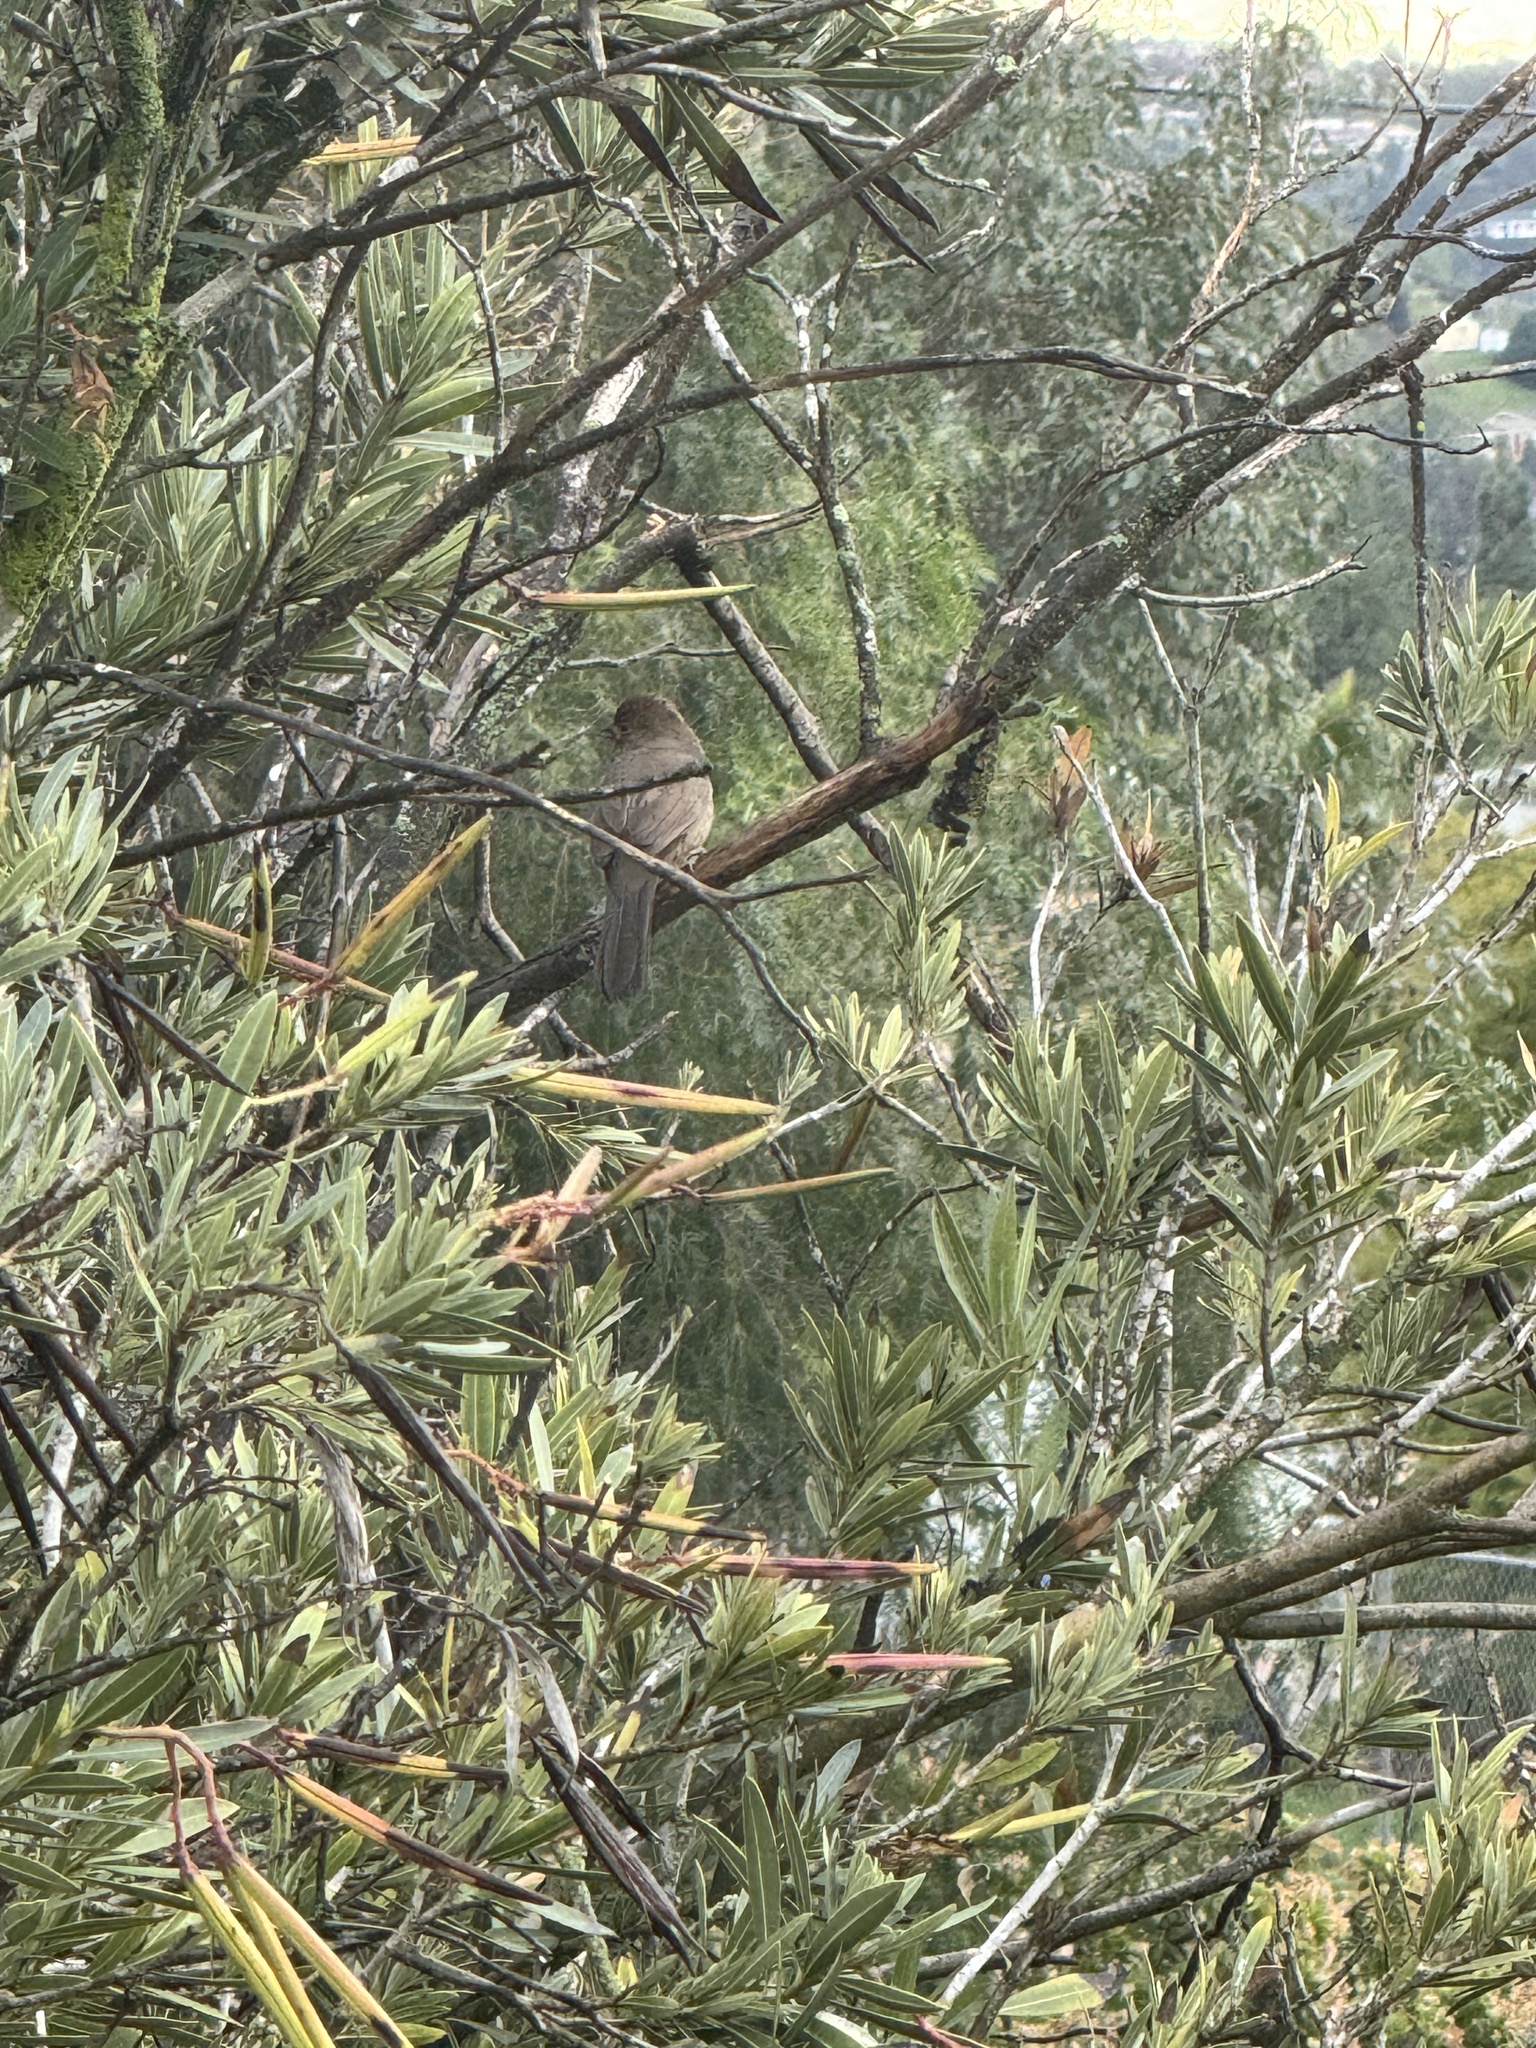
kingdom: Animalia
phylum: Chordata
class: Aves
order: Passeriformes
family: Passerellidae
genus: Melozone
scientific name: Melozone crissalis
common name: California towhee
